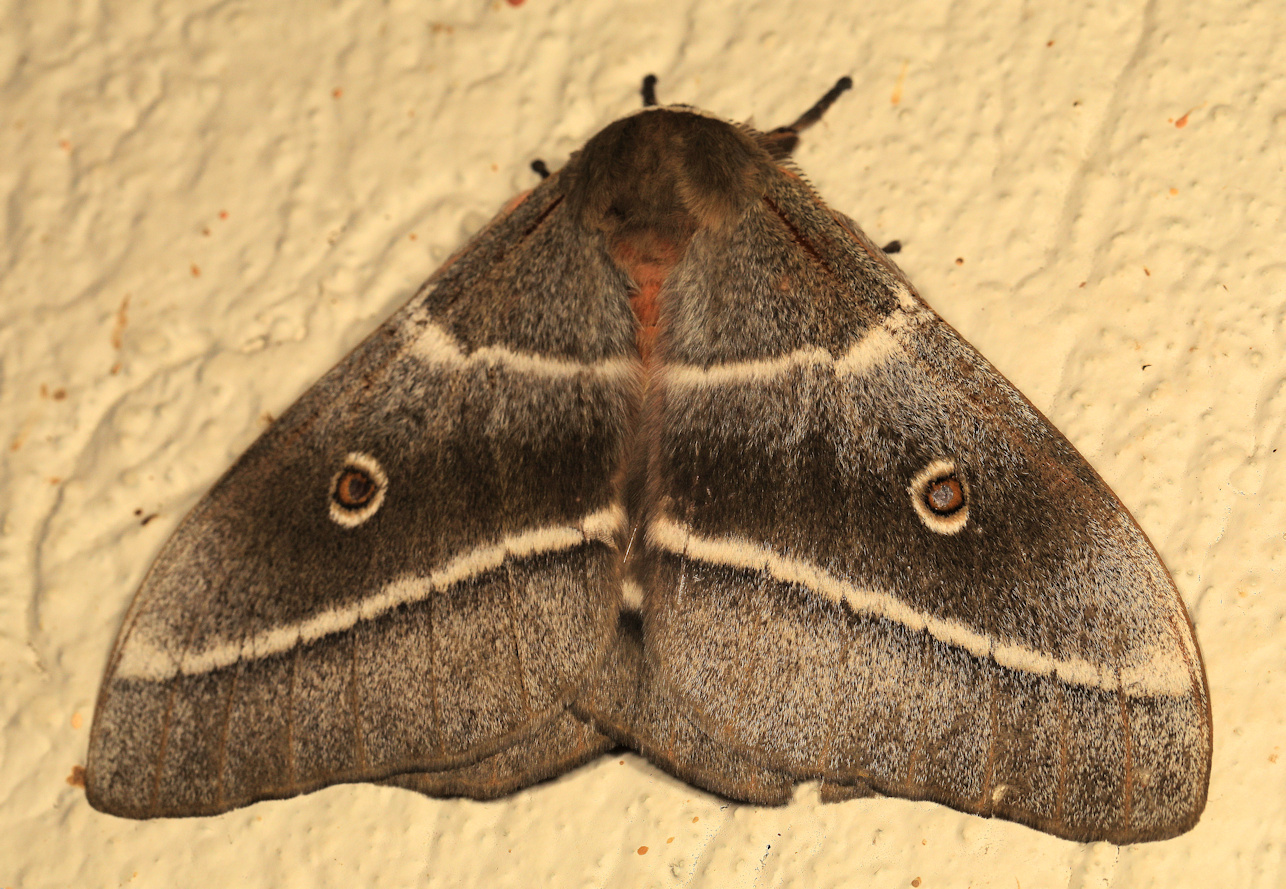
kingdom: Animalia
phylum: Arthropoda
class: Insecta
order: Lepidoptera
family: Saturniidae
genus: Gonimbrasia
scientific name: Gonimbrasia belina
